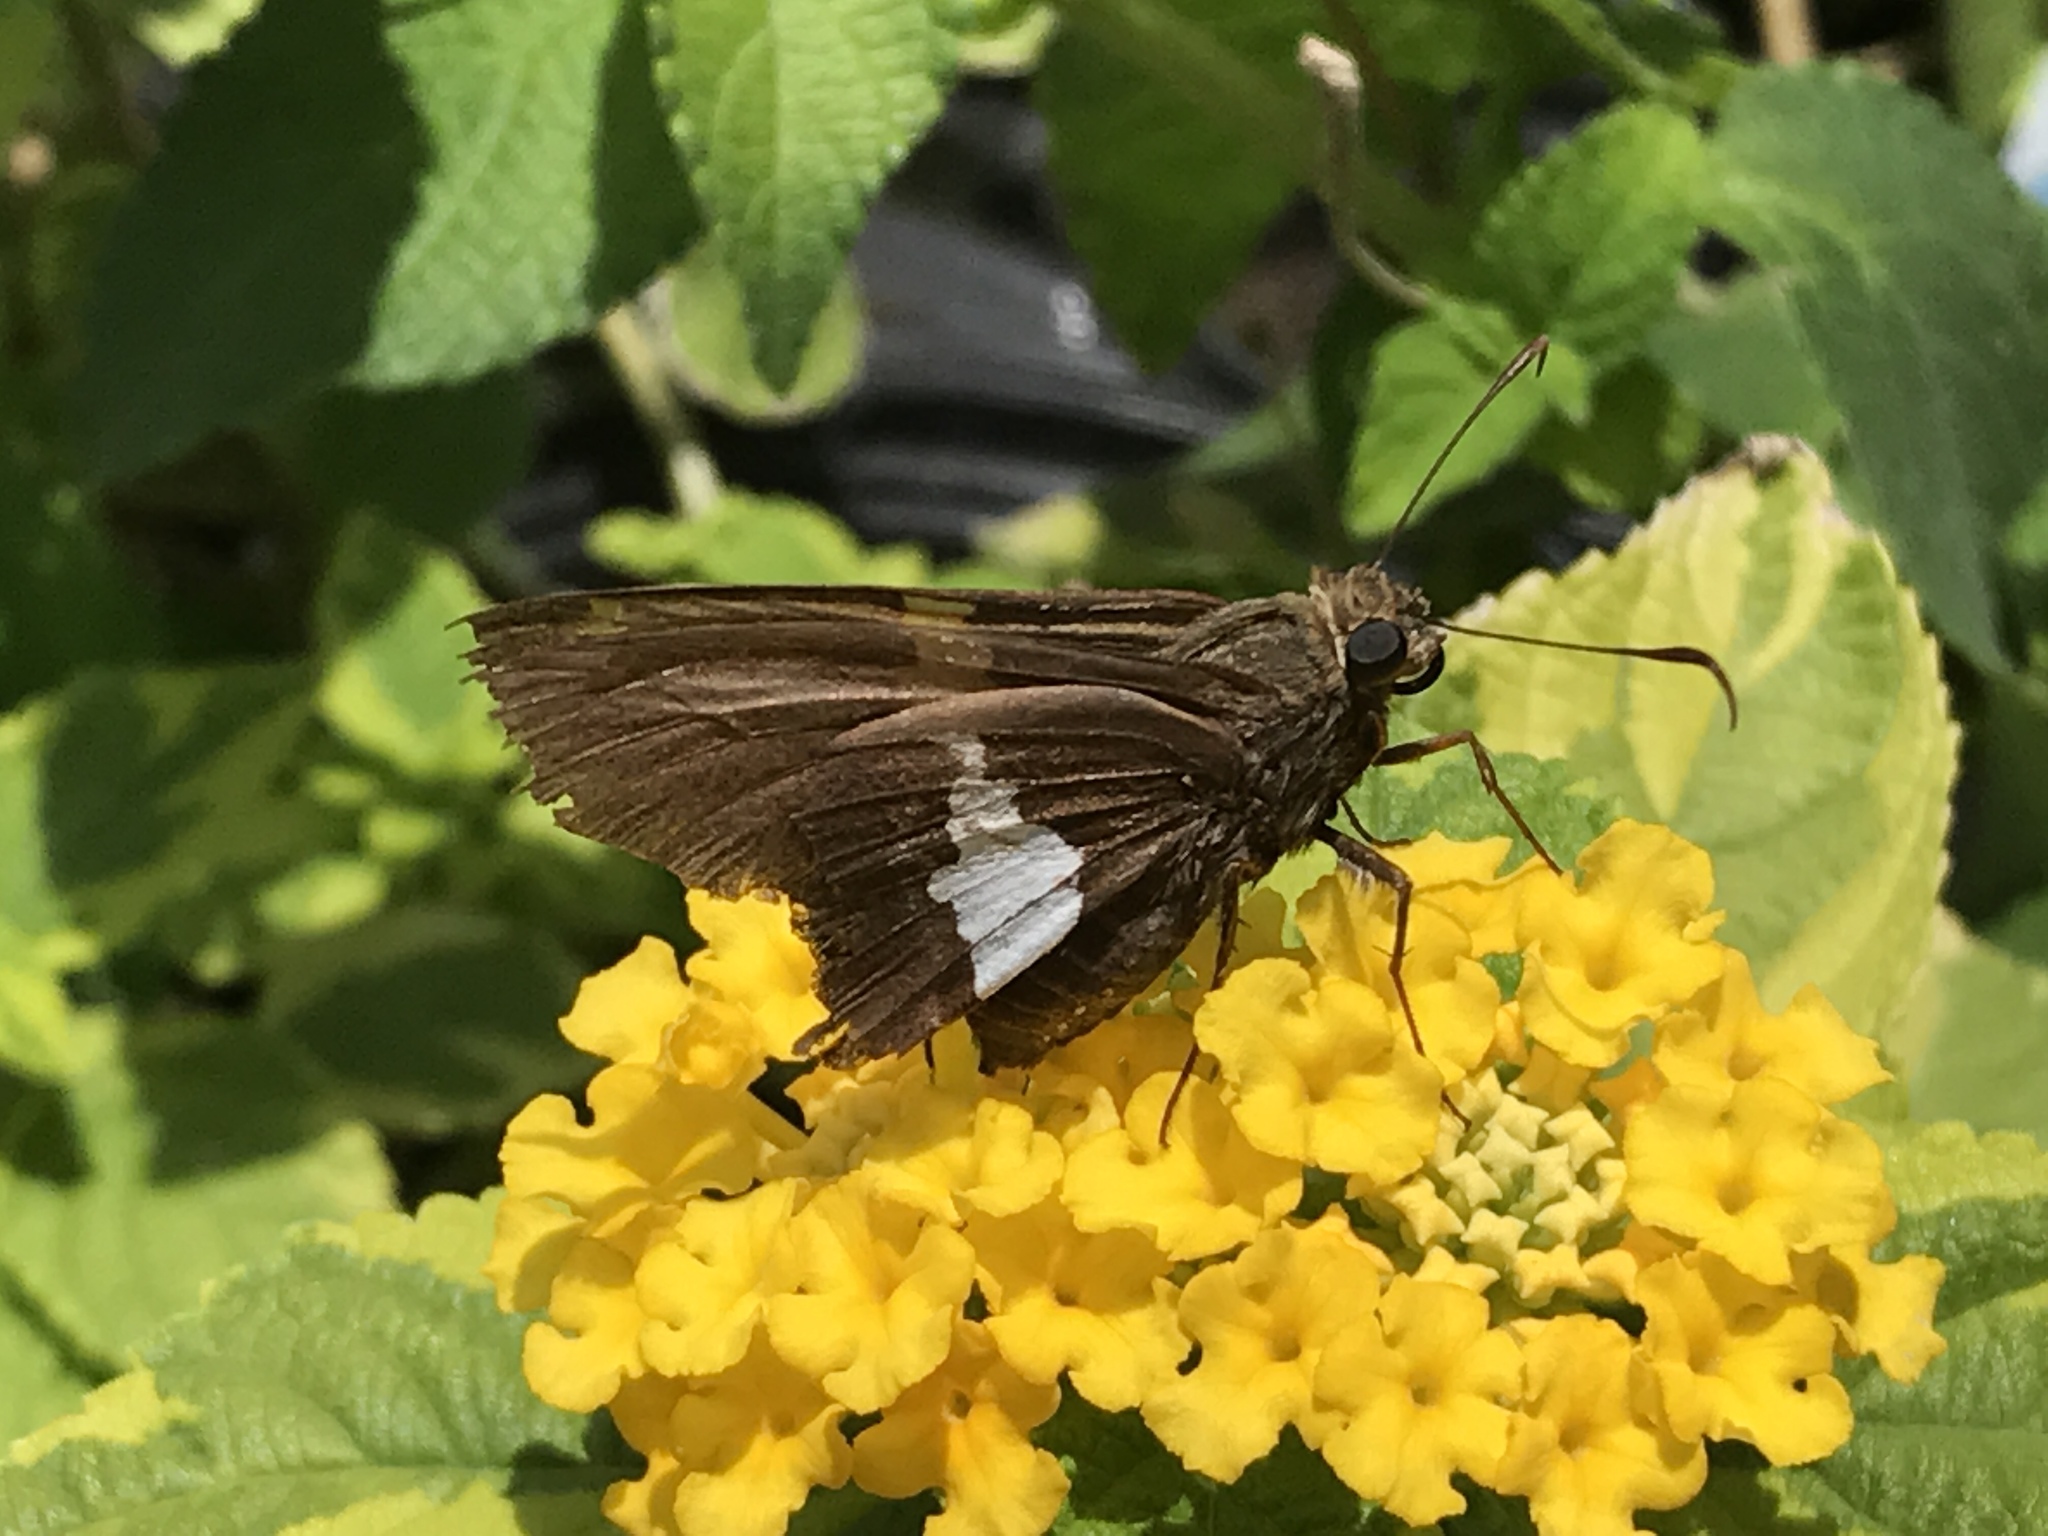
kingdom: Animalia
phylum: Arthropoda
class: Insecta
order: Lepidoptera
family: Hesperiidae
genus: Epargyreus
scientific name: Epargyreus clarus
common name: Silver-spotted skipper
